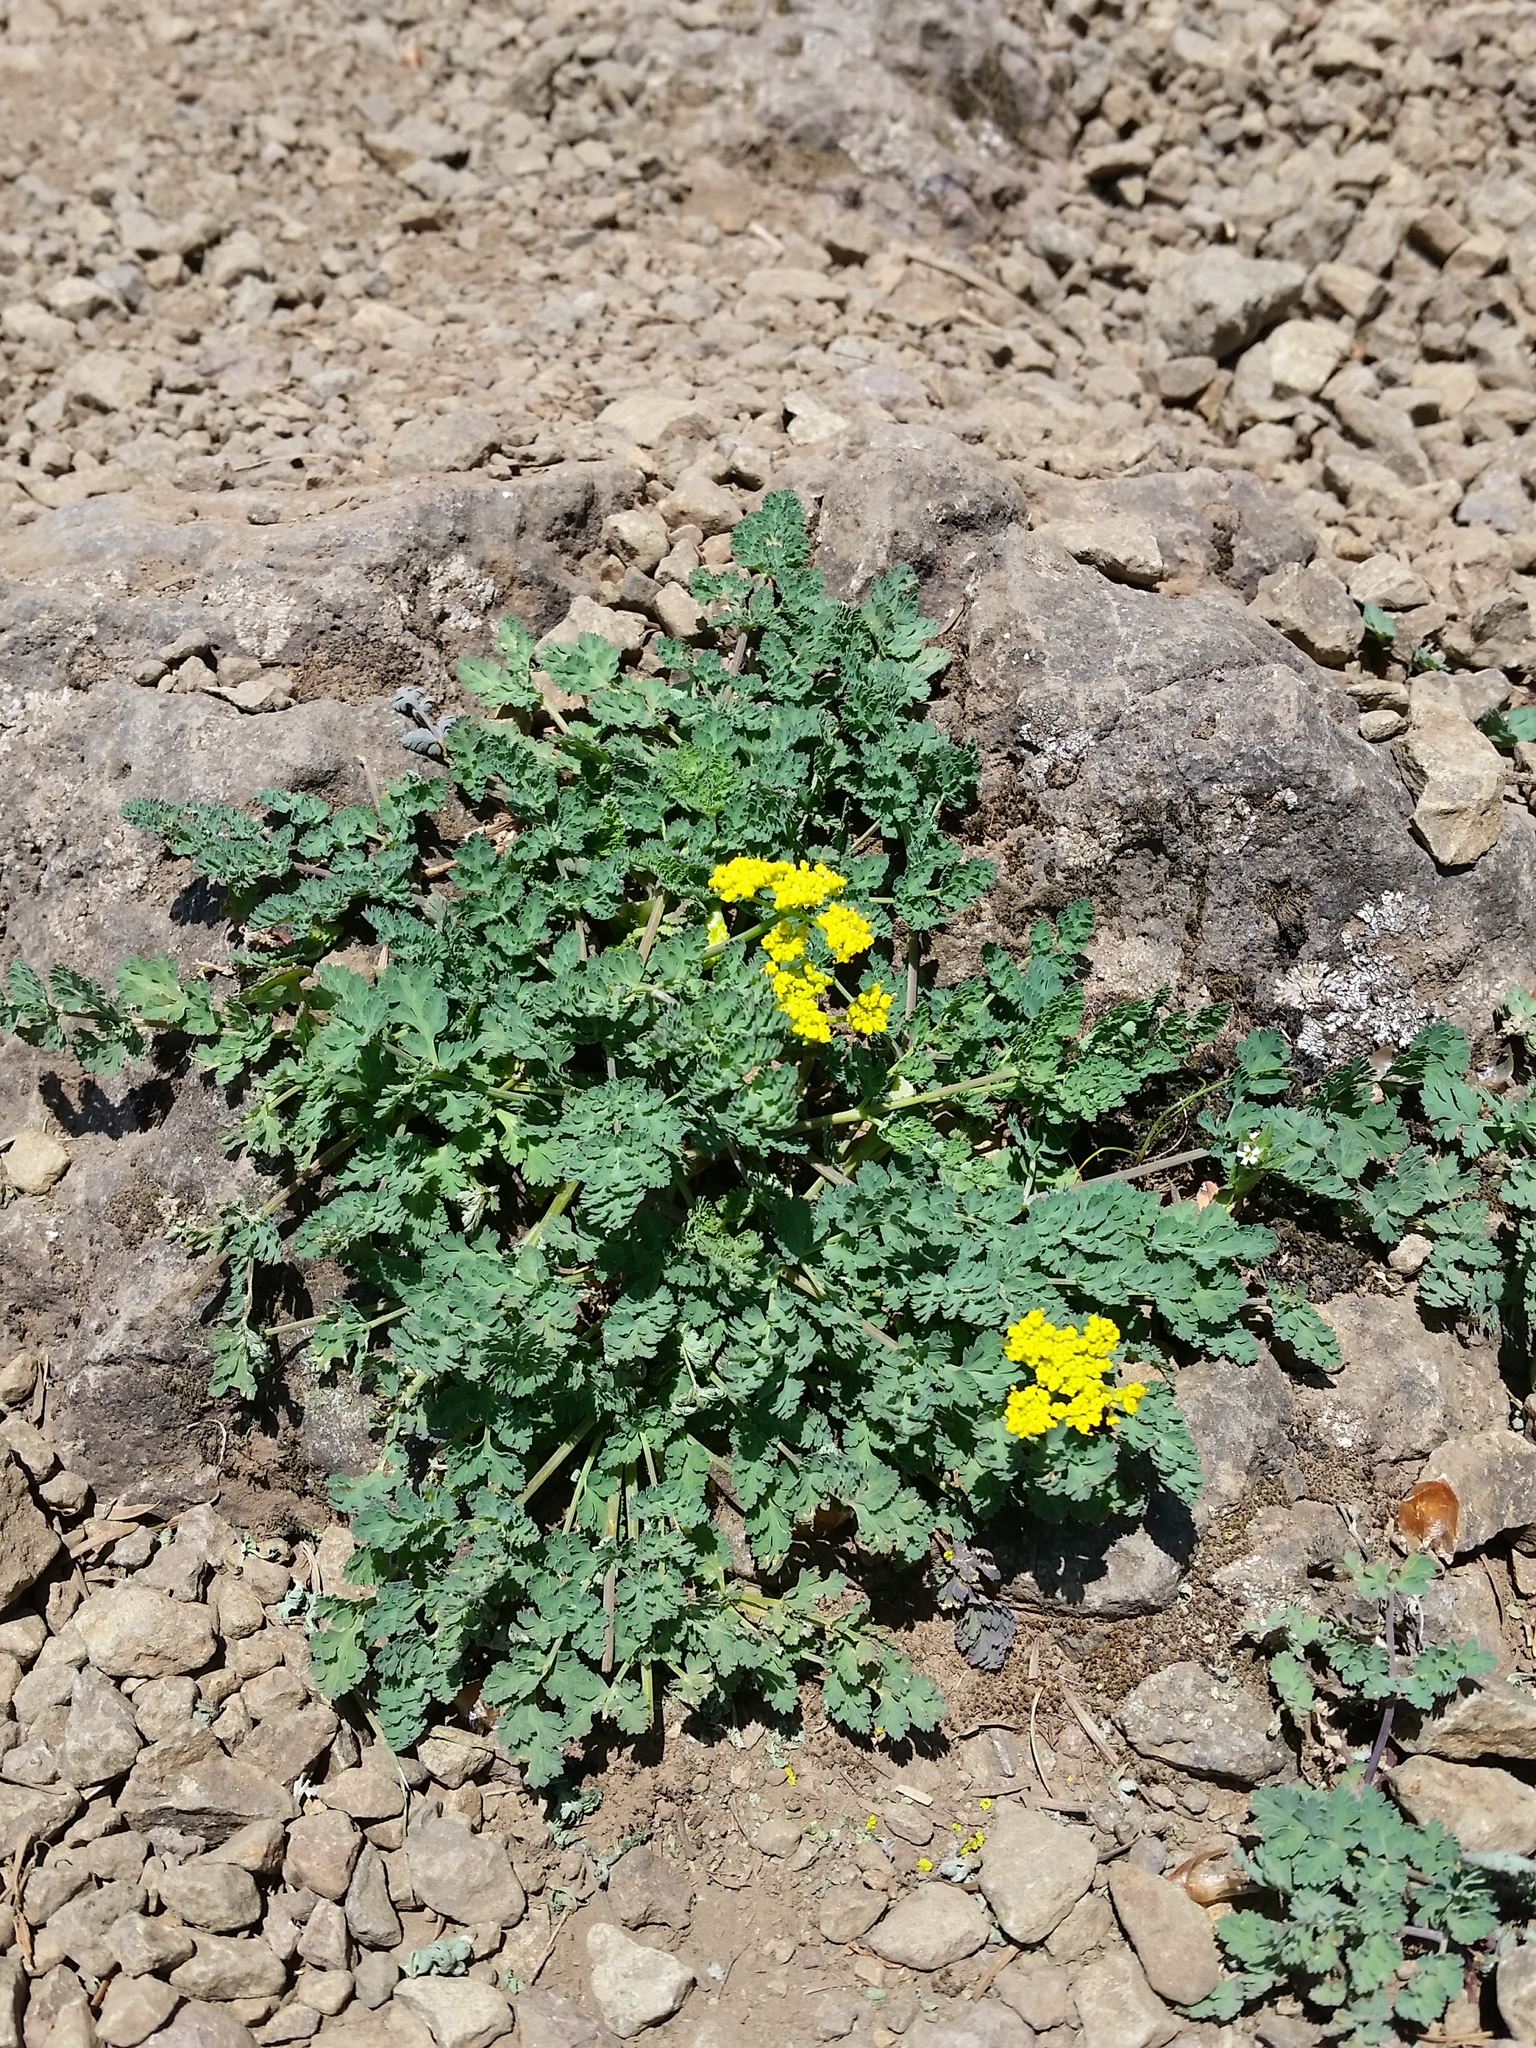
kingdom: Plantae
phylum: Tracheophyta
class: Magnoliopsida
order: Apiales
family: Apiaceae
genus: Lomatium
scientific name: Lomatium martindalei
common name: Cascade desert-parsley
